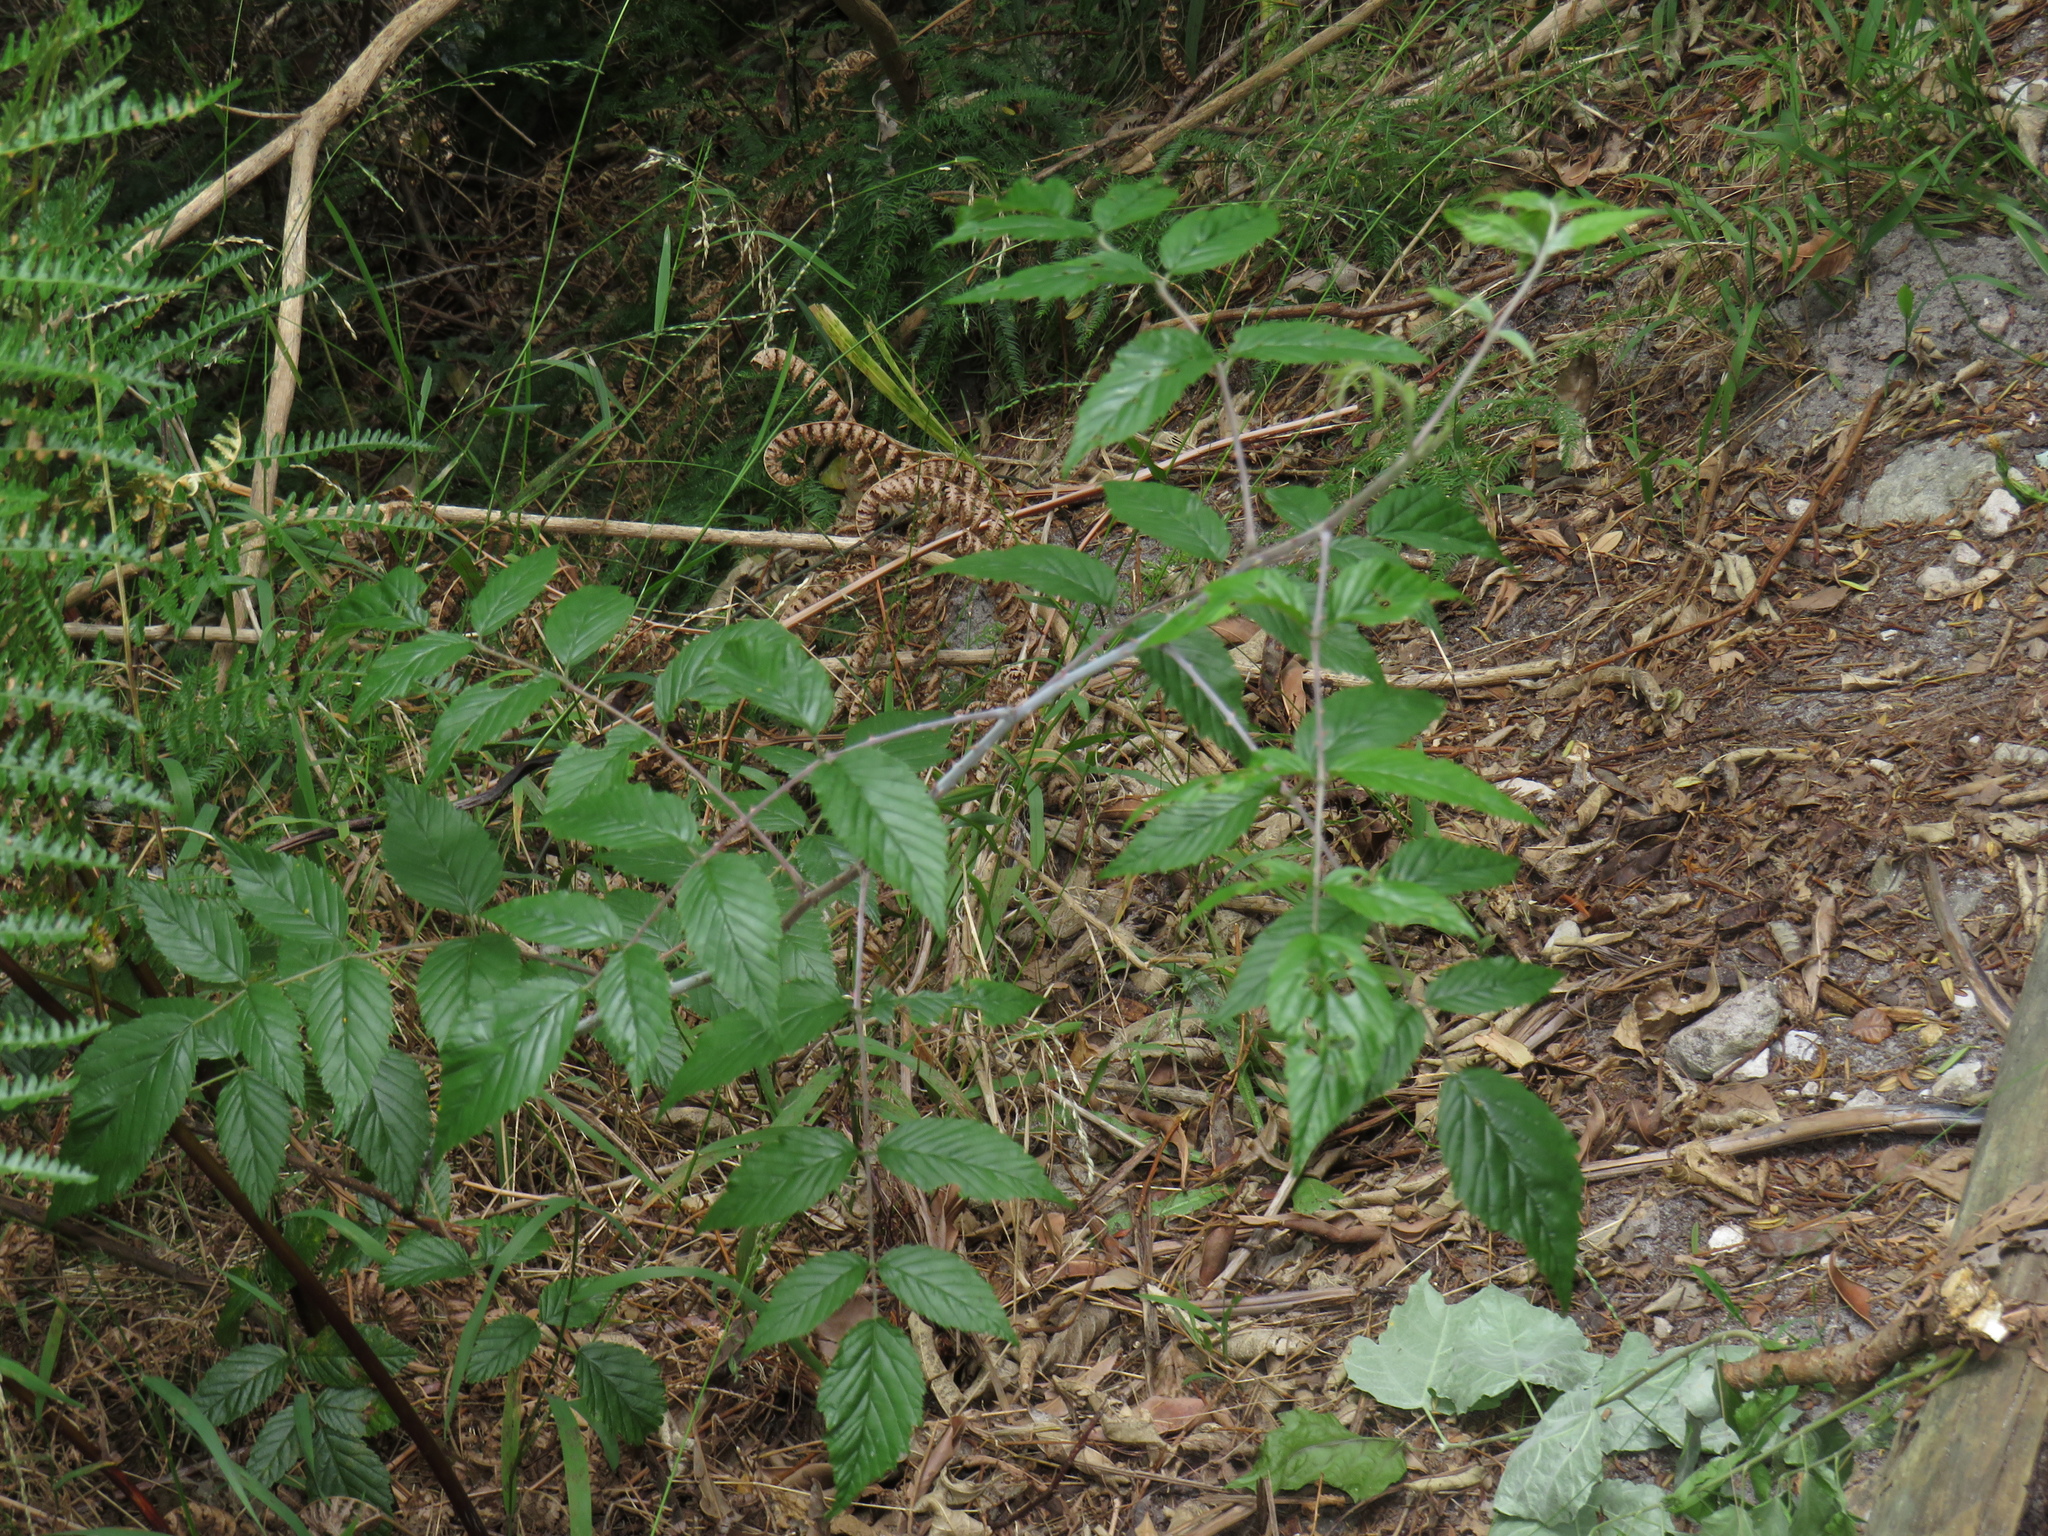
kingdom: Plantae
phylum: Tracheophyta
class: Magnoliopsida
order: Rosales
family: Rosaceae
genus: Rubus
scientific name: Rubus pinnatus
